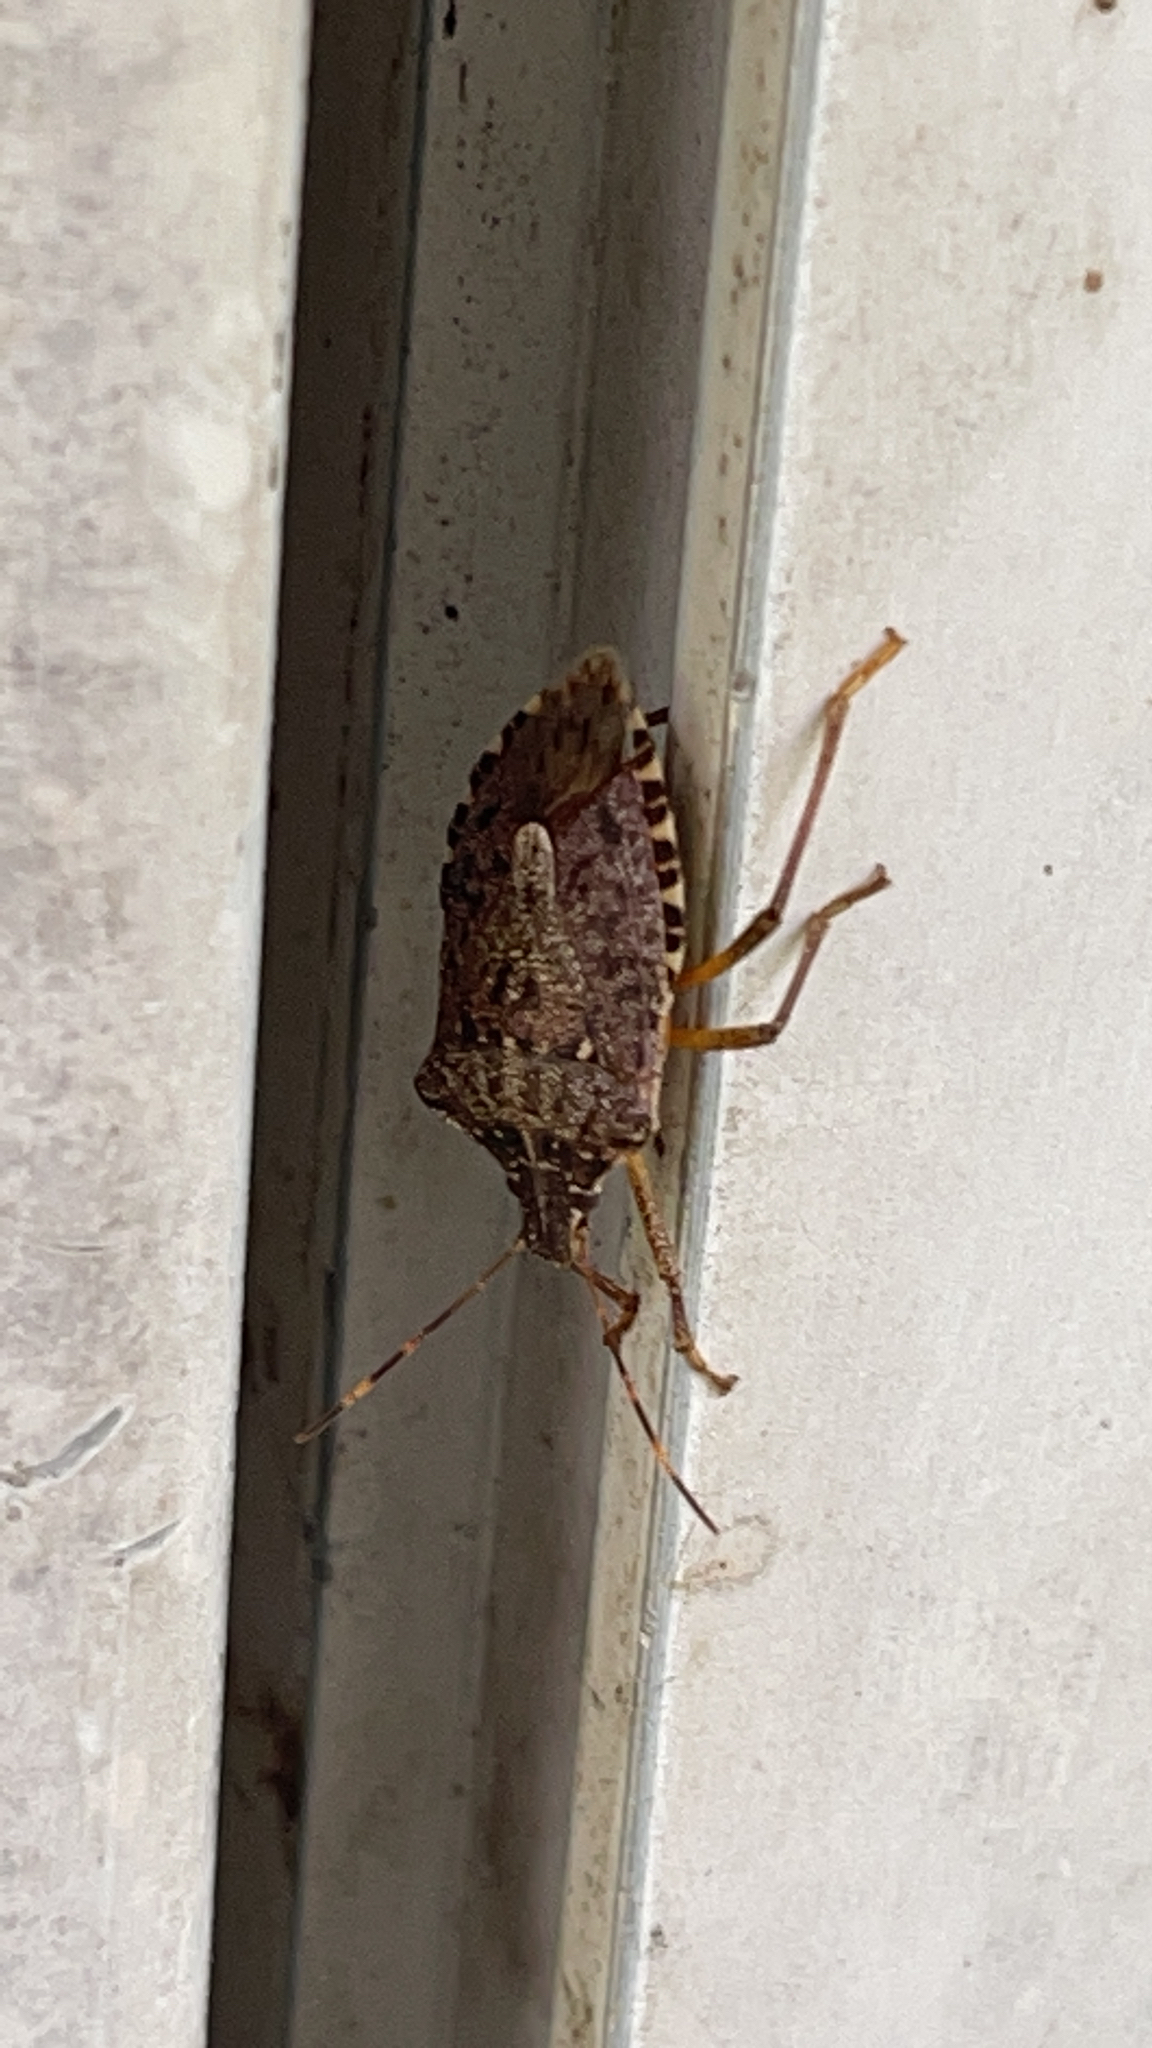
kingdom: Animalia
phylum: Arthropoda
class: Insecta
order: Hemiptera
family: Pentatomidae
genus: Halyomorpha
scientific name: Halyomorpha halys
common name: Brown marmorated stink bug
